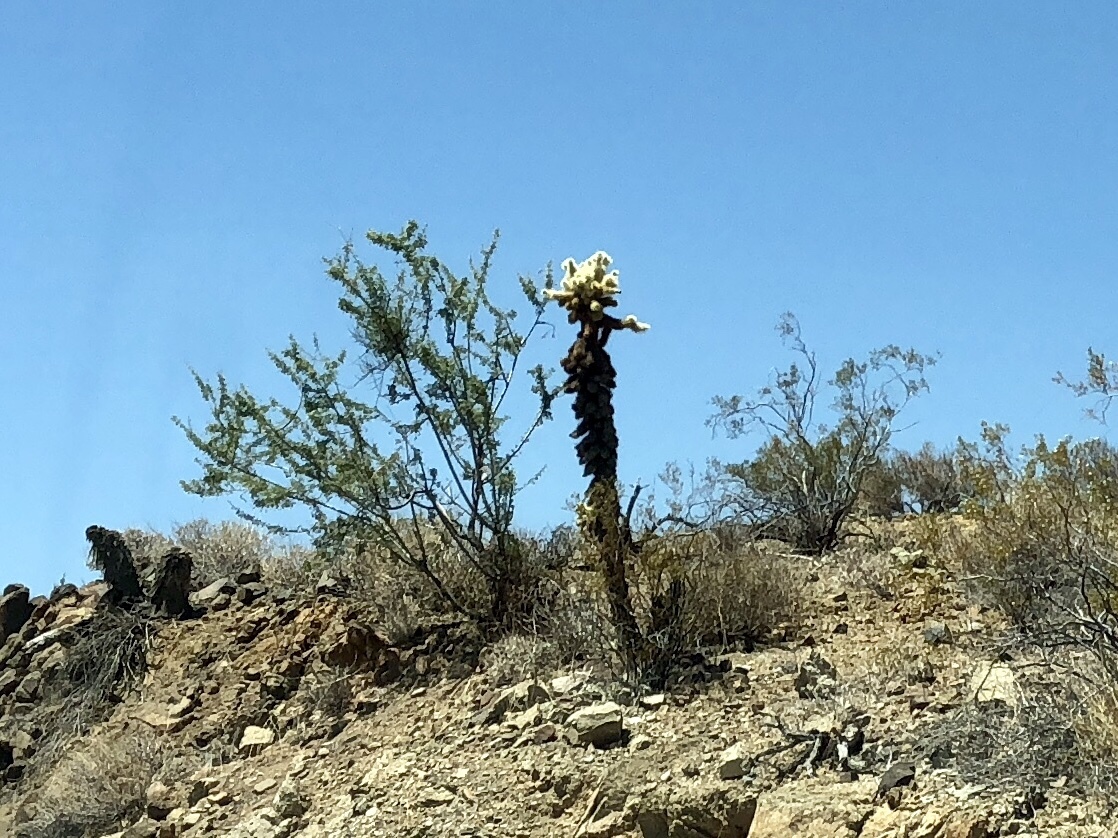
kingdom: Plantae
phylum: Tracheophyta
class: Magnoliopsida
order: Caryophyllales
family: Cactaceae
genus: Cylindropuntia
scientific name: Cylindropuntia fosbergii
